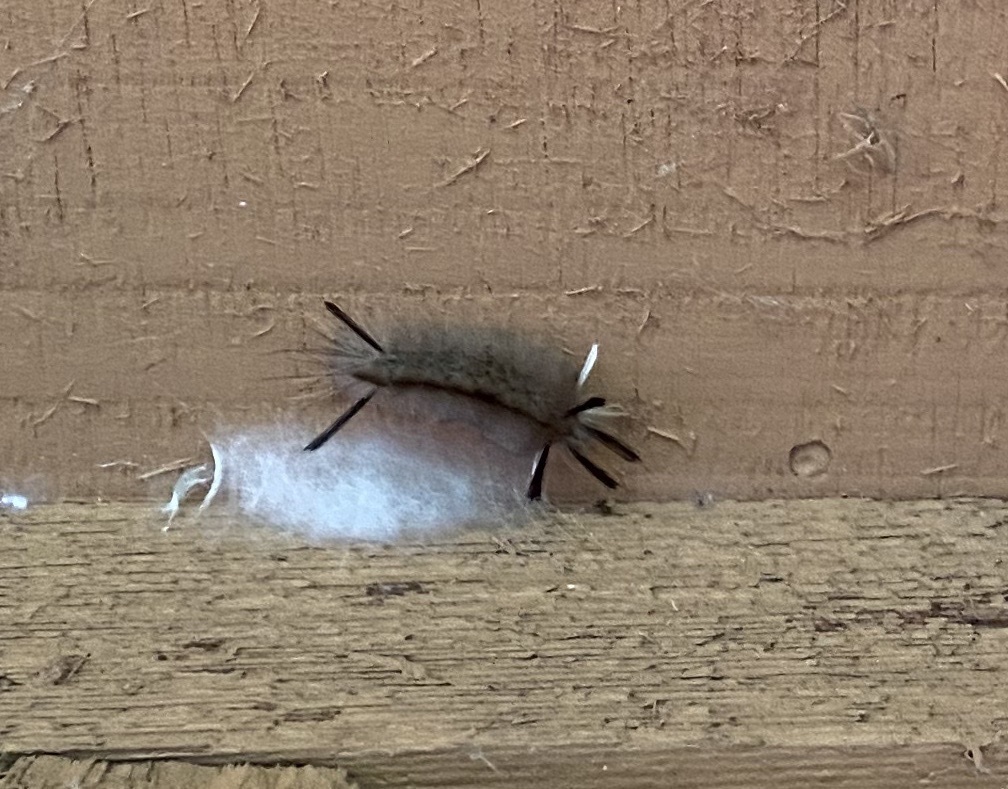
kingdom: Animalia
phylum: Arthropoda
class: Insecta
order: Lepidoptera
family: Erebidae
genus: Halysidota
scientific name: Halysidota tessellaris
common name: Banded tussock moth
